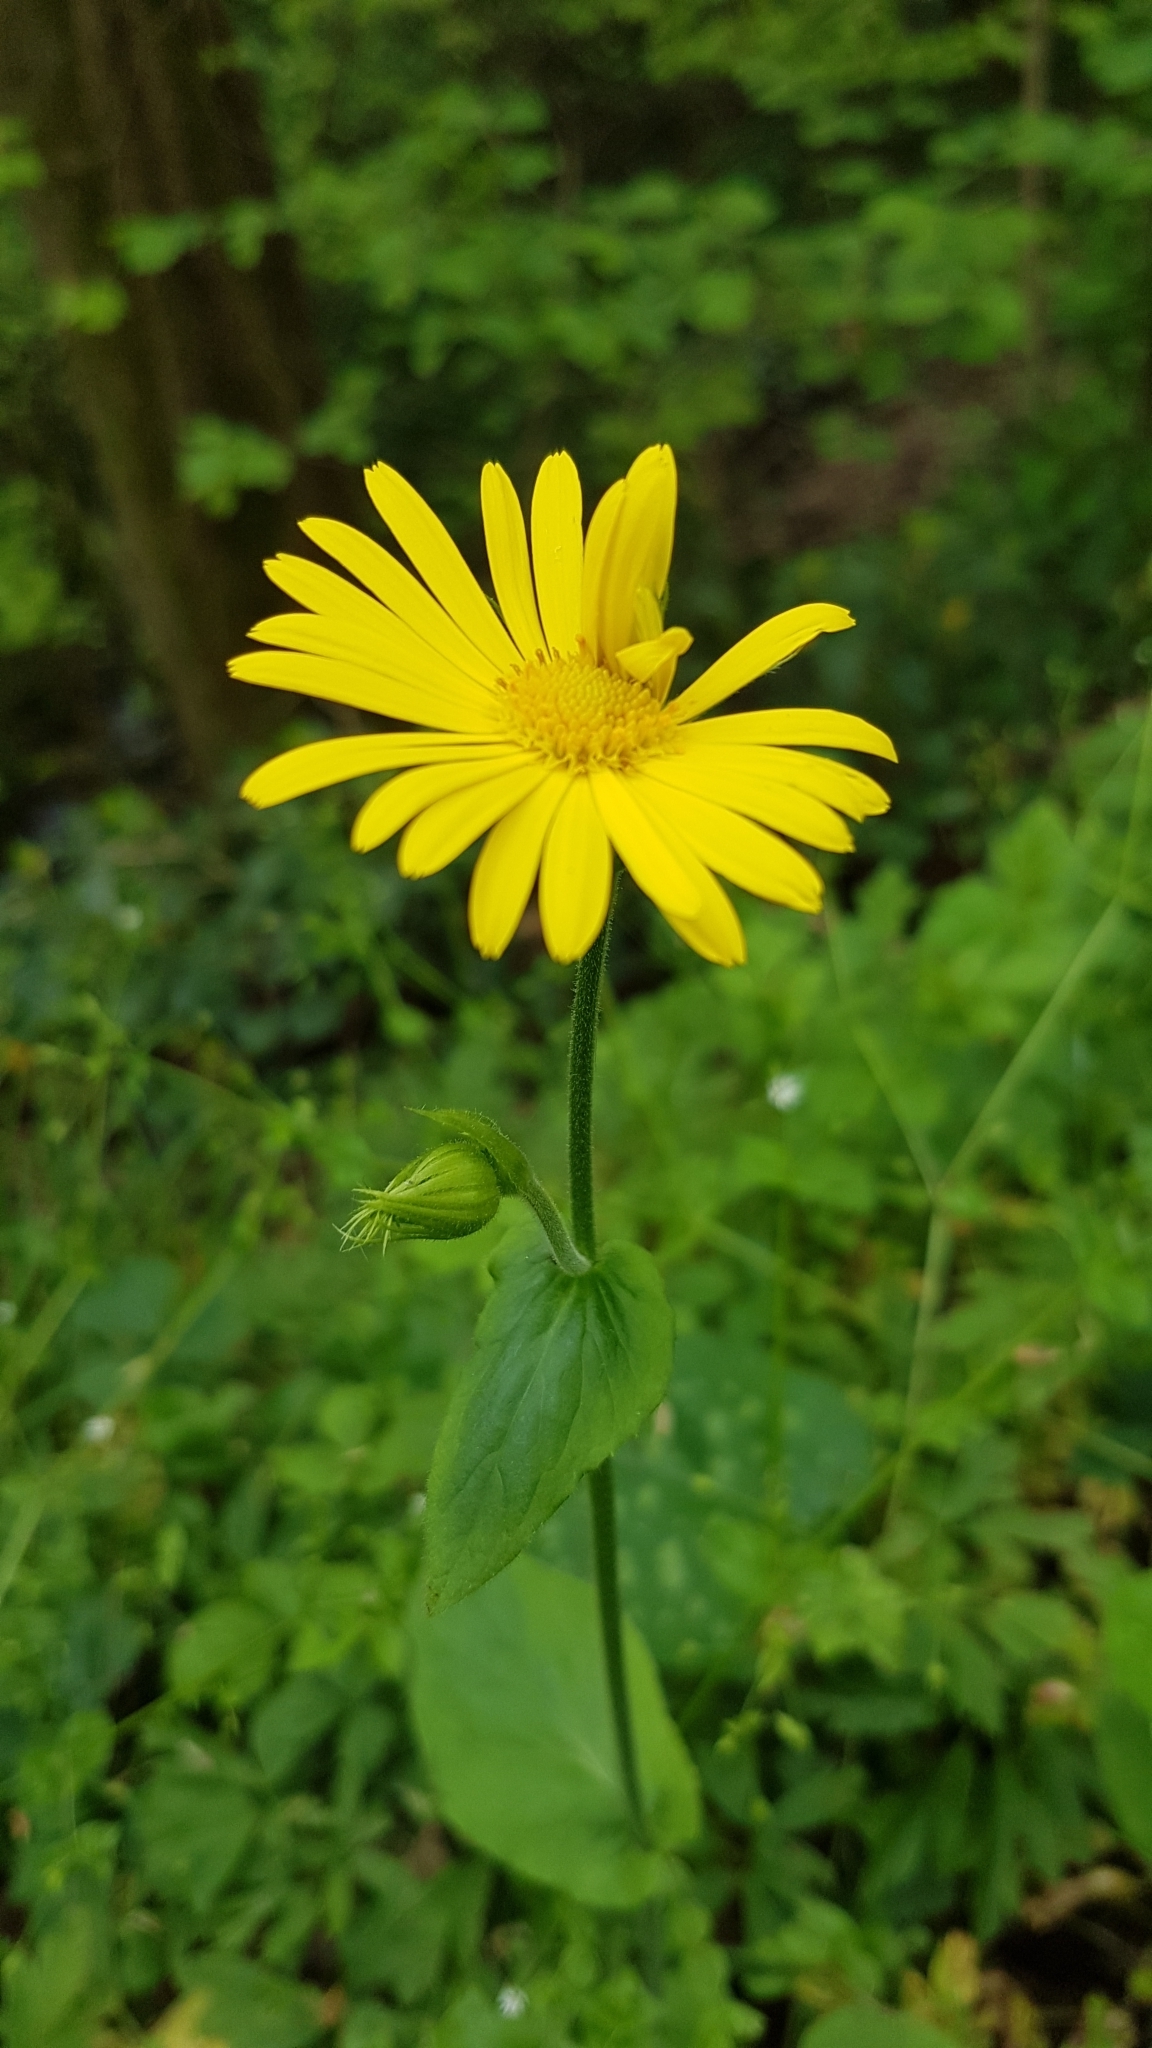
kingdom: Plantae
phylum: Tracheophyta
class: Magnoliopsida
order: Asterales
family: Asteraceae
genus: Doronicum
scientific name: Doronicum pardalianches
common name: Leopard's-bane
